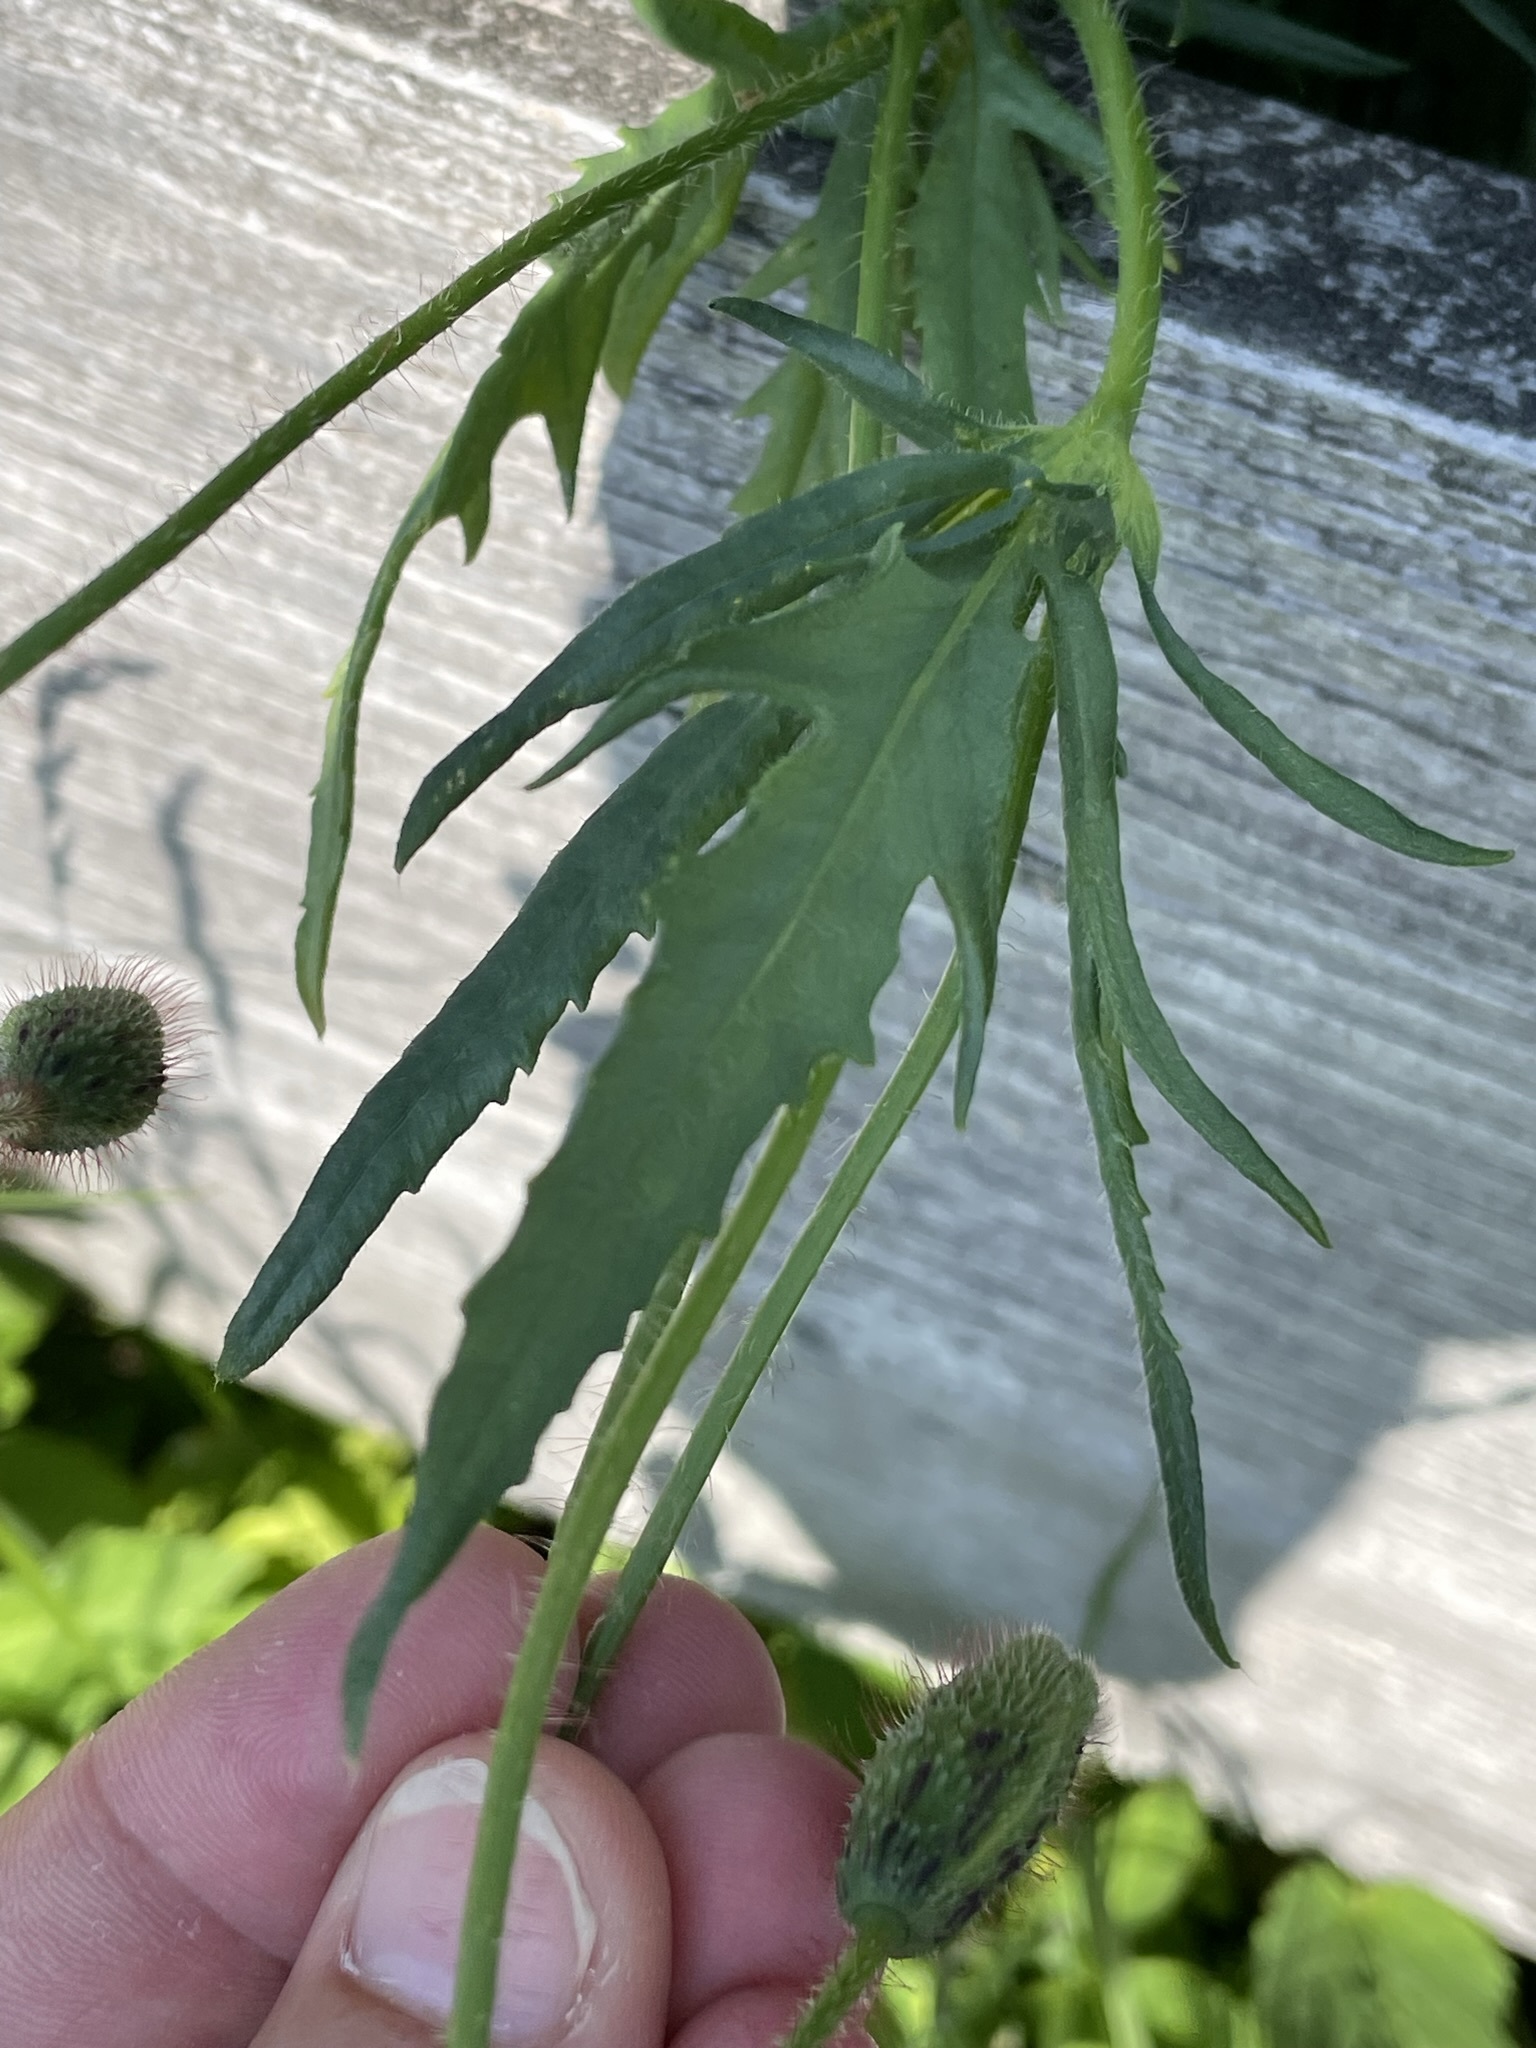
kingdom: Plantae
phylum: Tracheophyta
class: Magnoliopsida
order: Ranunculales
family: Papaveraceae
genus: Papaver
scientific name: Papaver rhoeas
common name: Corn poppy
